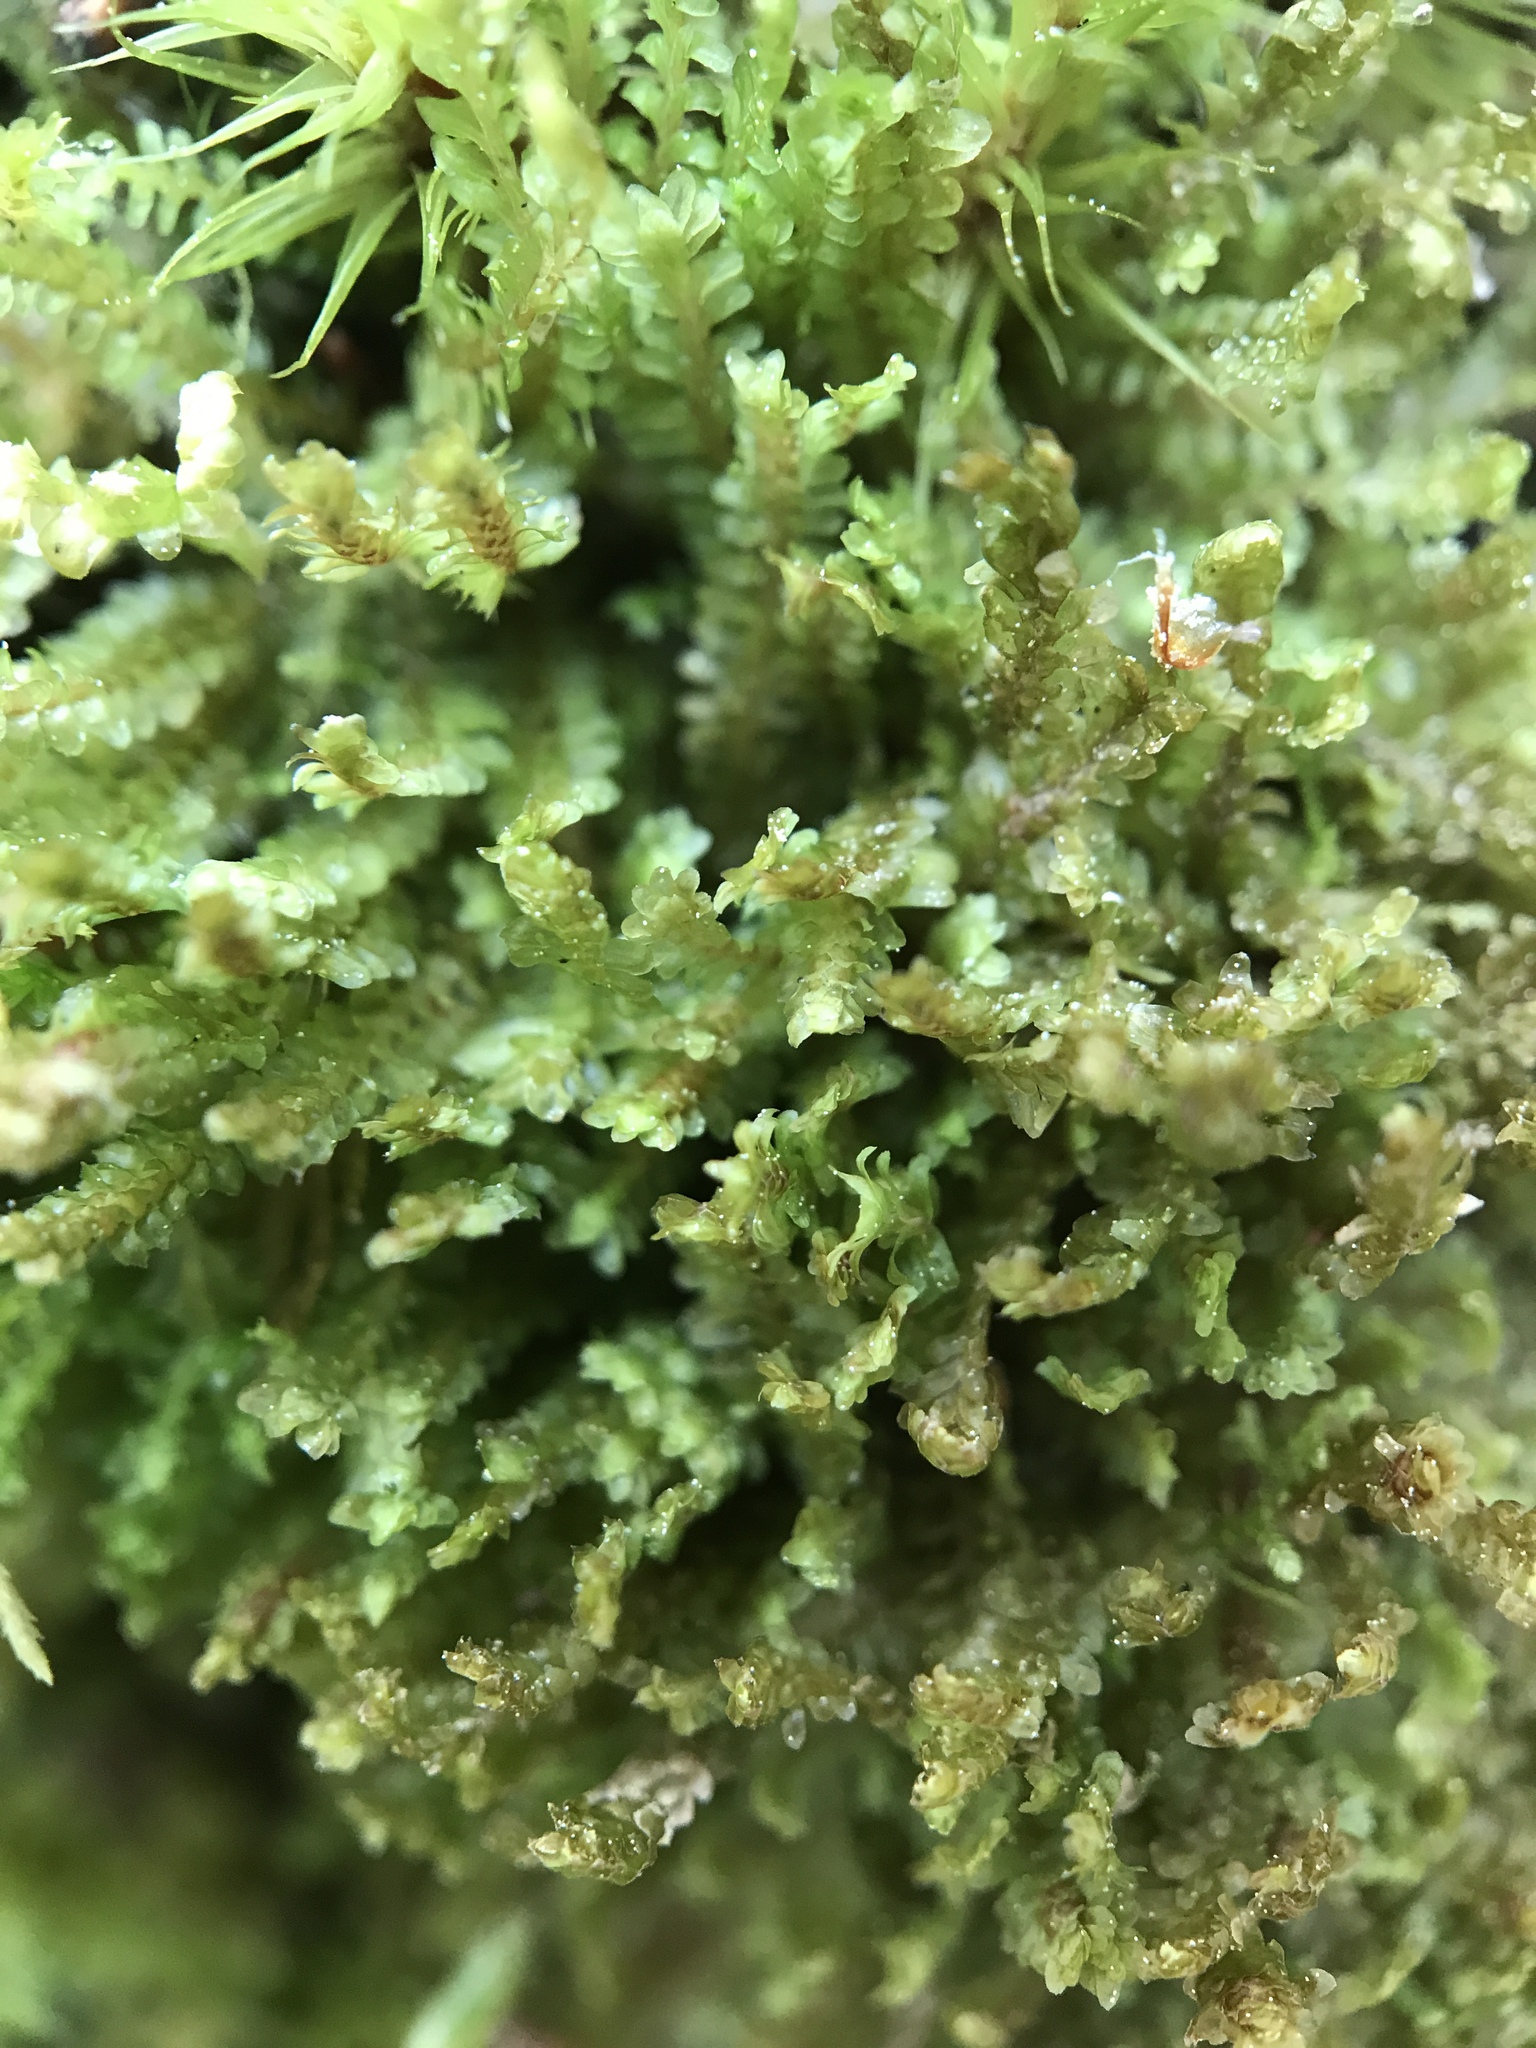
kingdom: Plantae
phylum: Marchantiophyta
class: Jungermanniopsida
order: Jungermanniales
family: Scapaniaceae
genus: Diplophyllum
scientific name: Diplophyllum albicans
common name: White earwort
